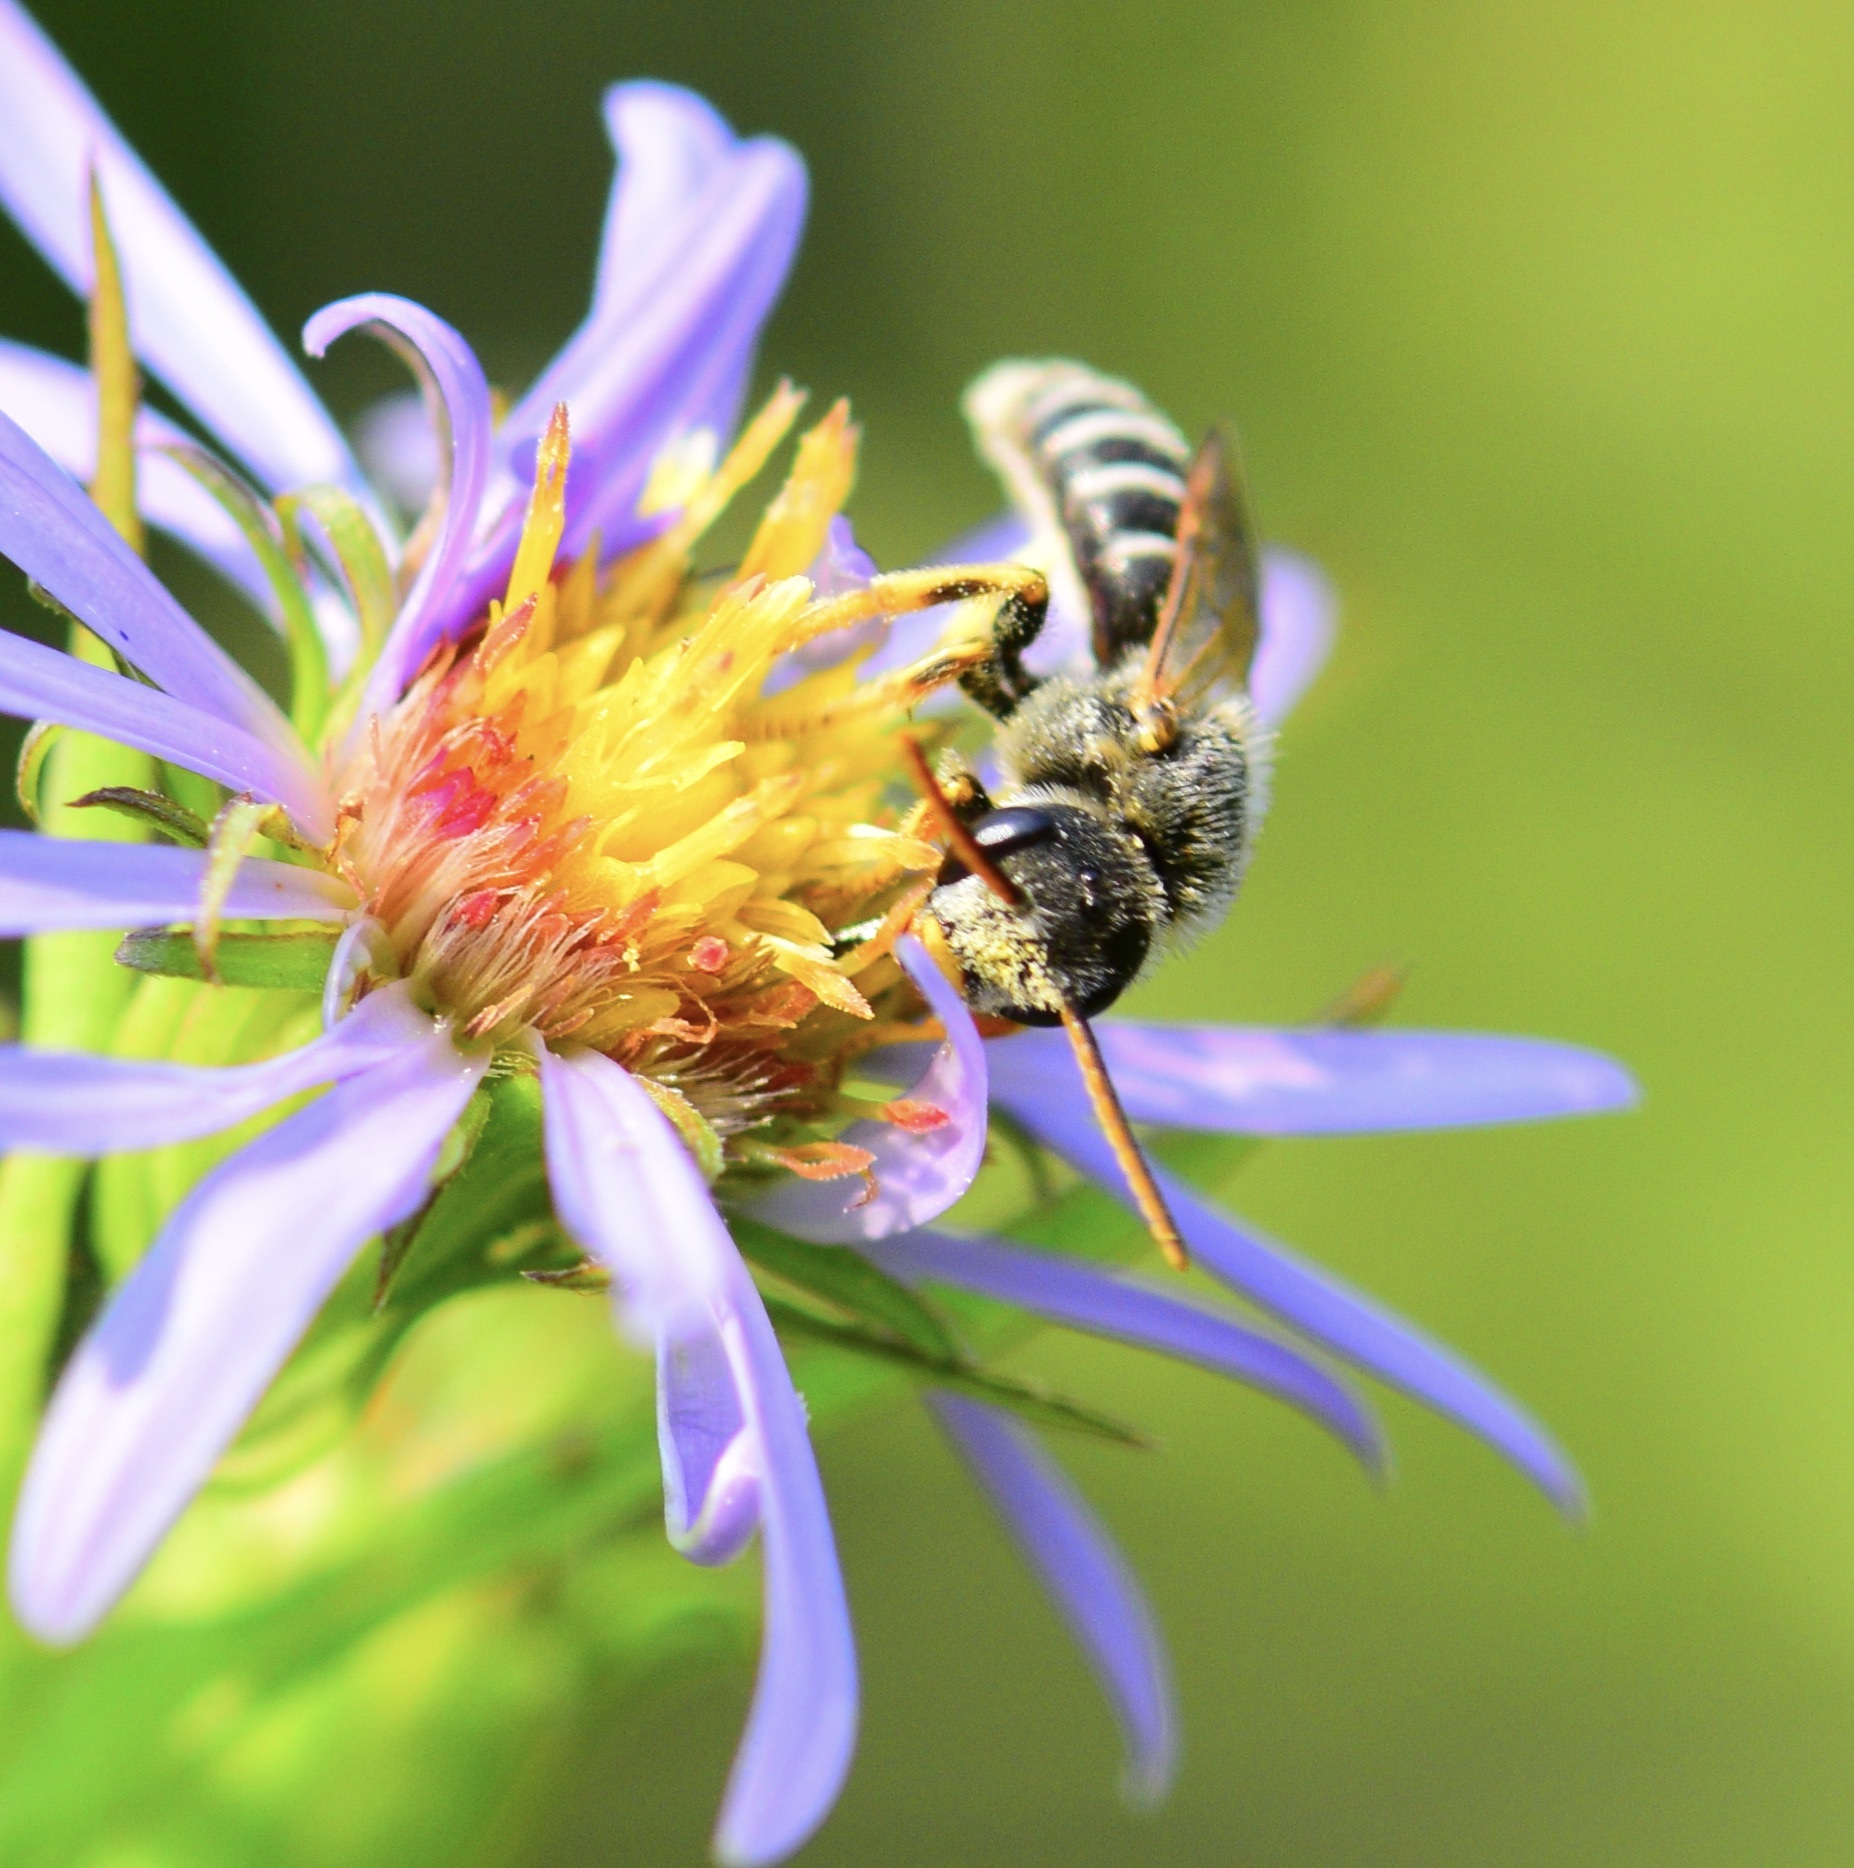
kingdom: Animalia
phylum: Arthropoda
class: Insecta
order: Hymenoptera
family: Halictidae
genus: Halictus
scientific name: Halictus ligatus
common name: Ligated furrow bee
